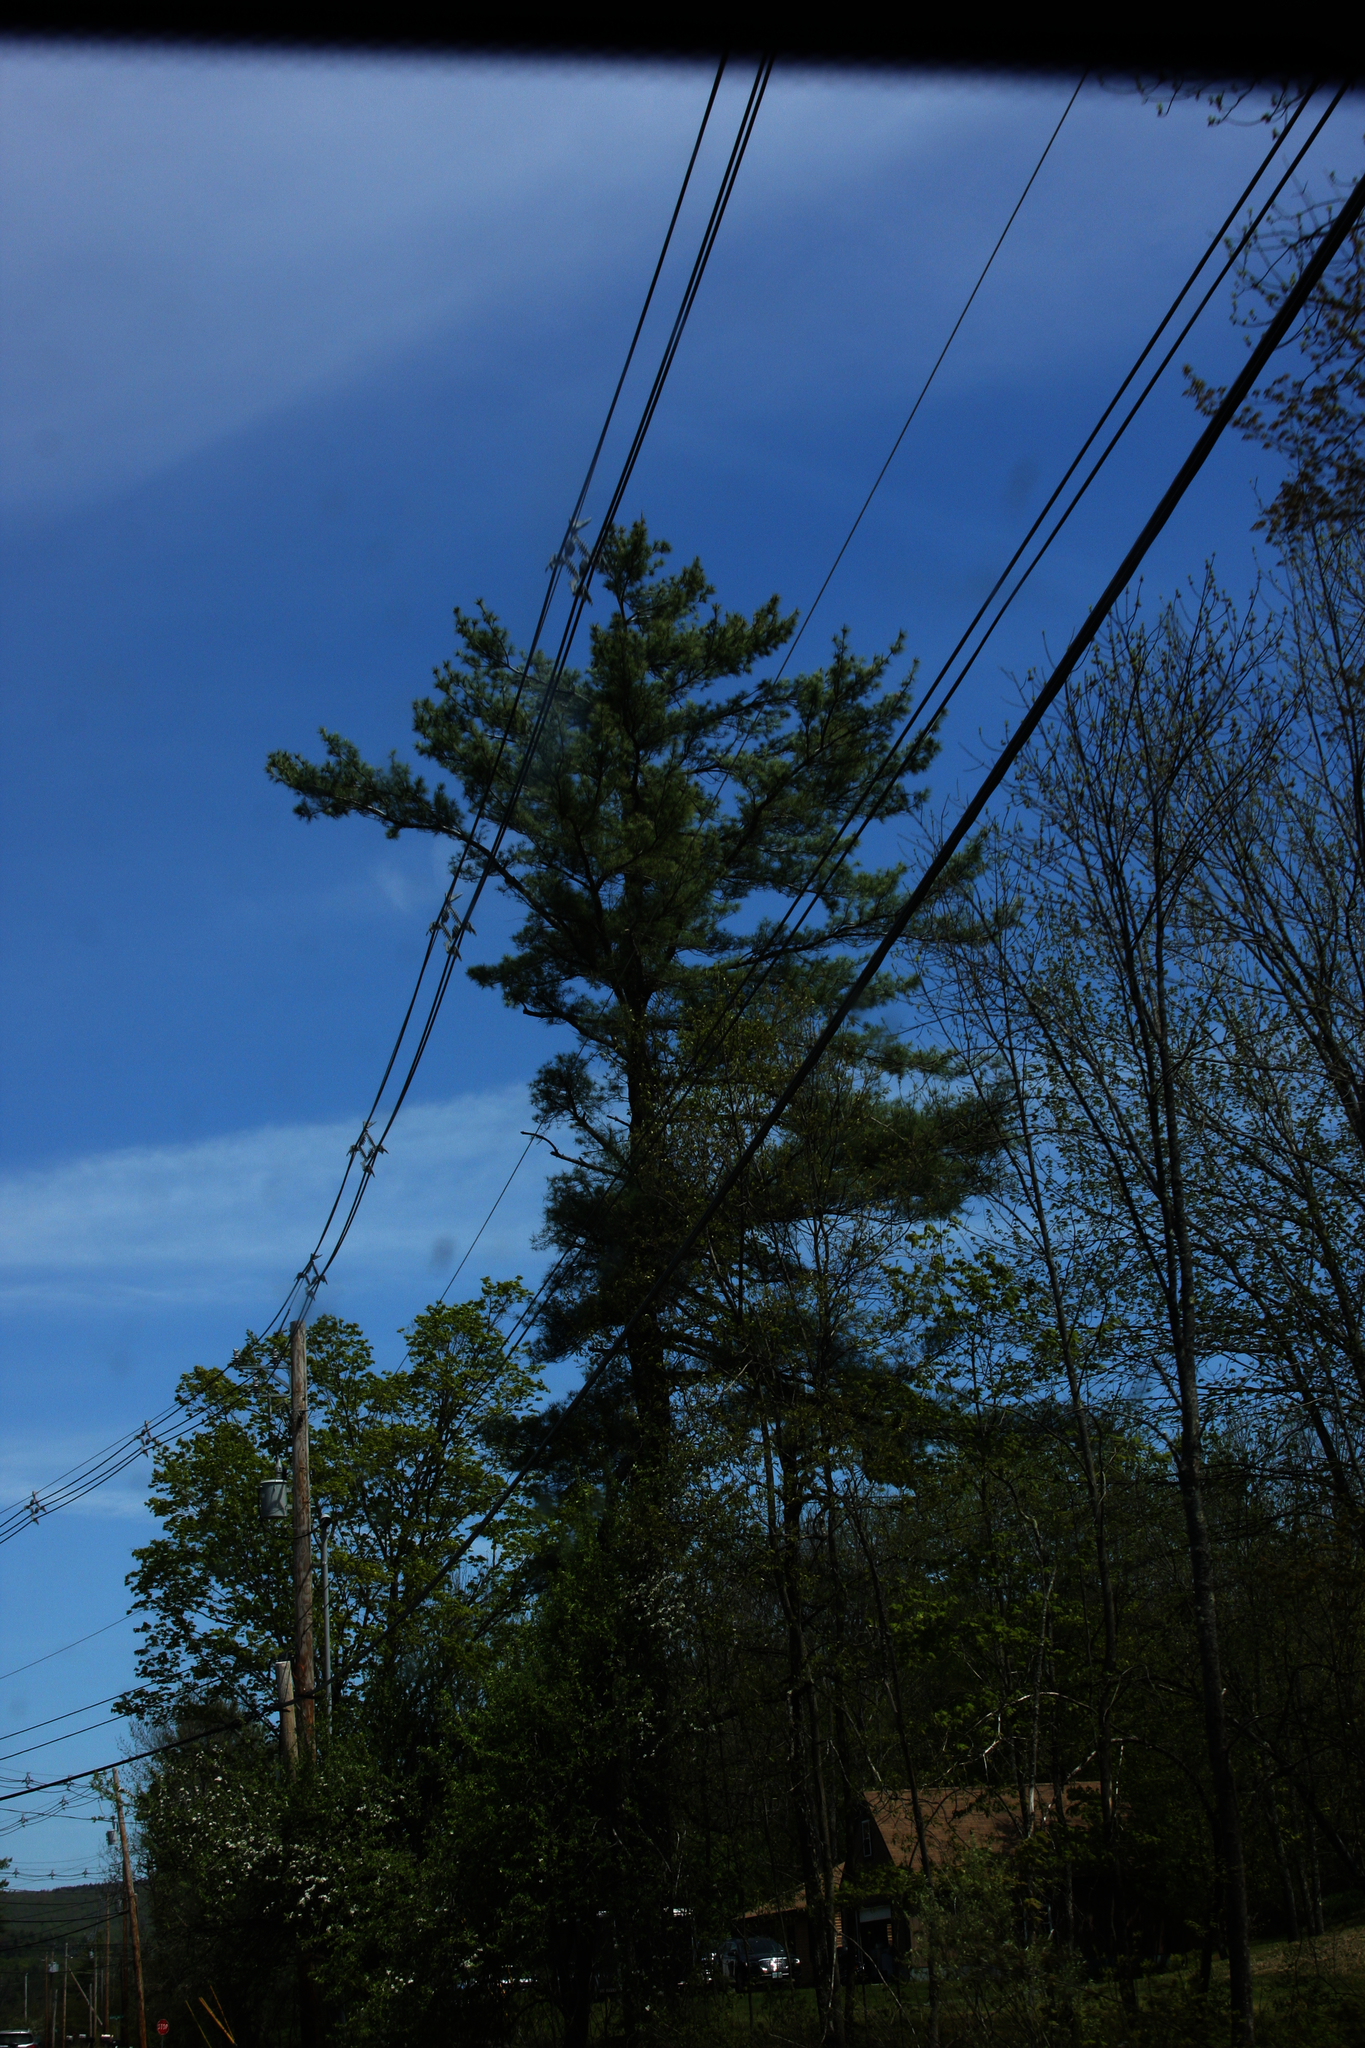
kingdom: Plantae
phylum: Tracheophyta
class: Pinopsida
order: Pinales
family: Pinaceae
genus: Pinus
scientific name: Pinus strobus
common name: Weymouth pine
